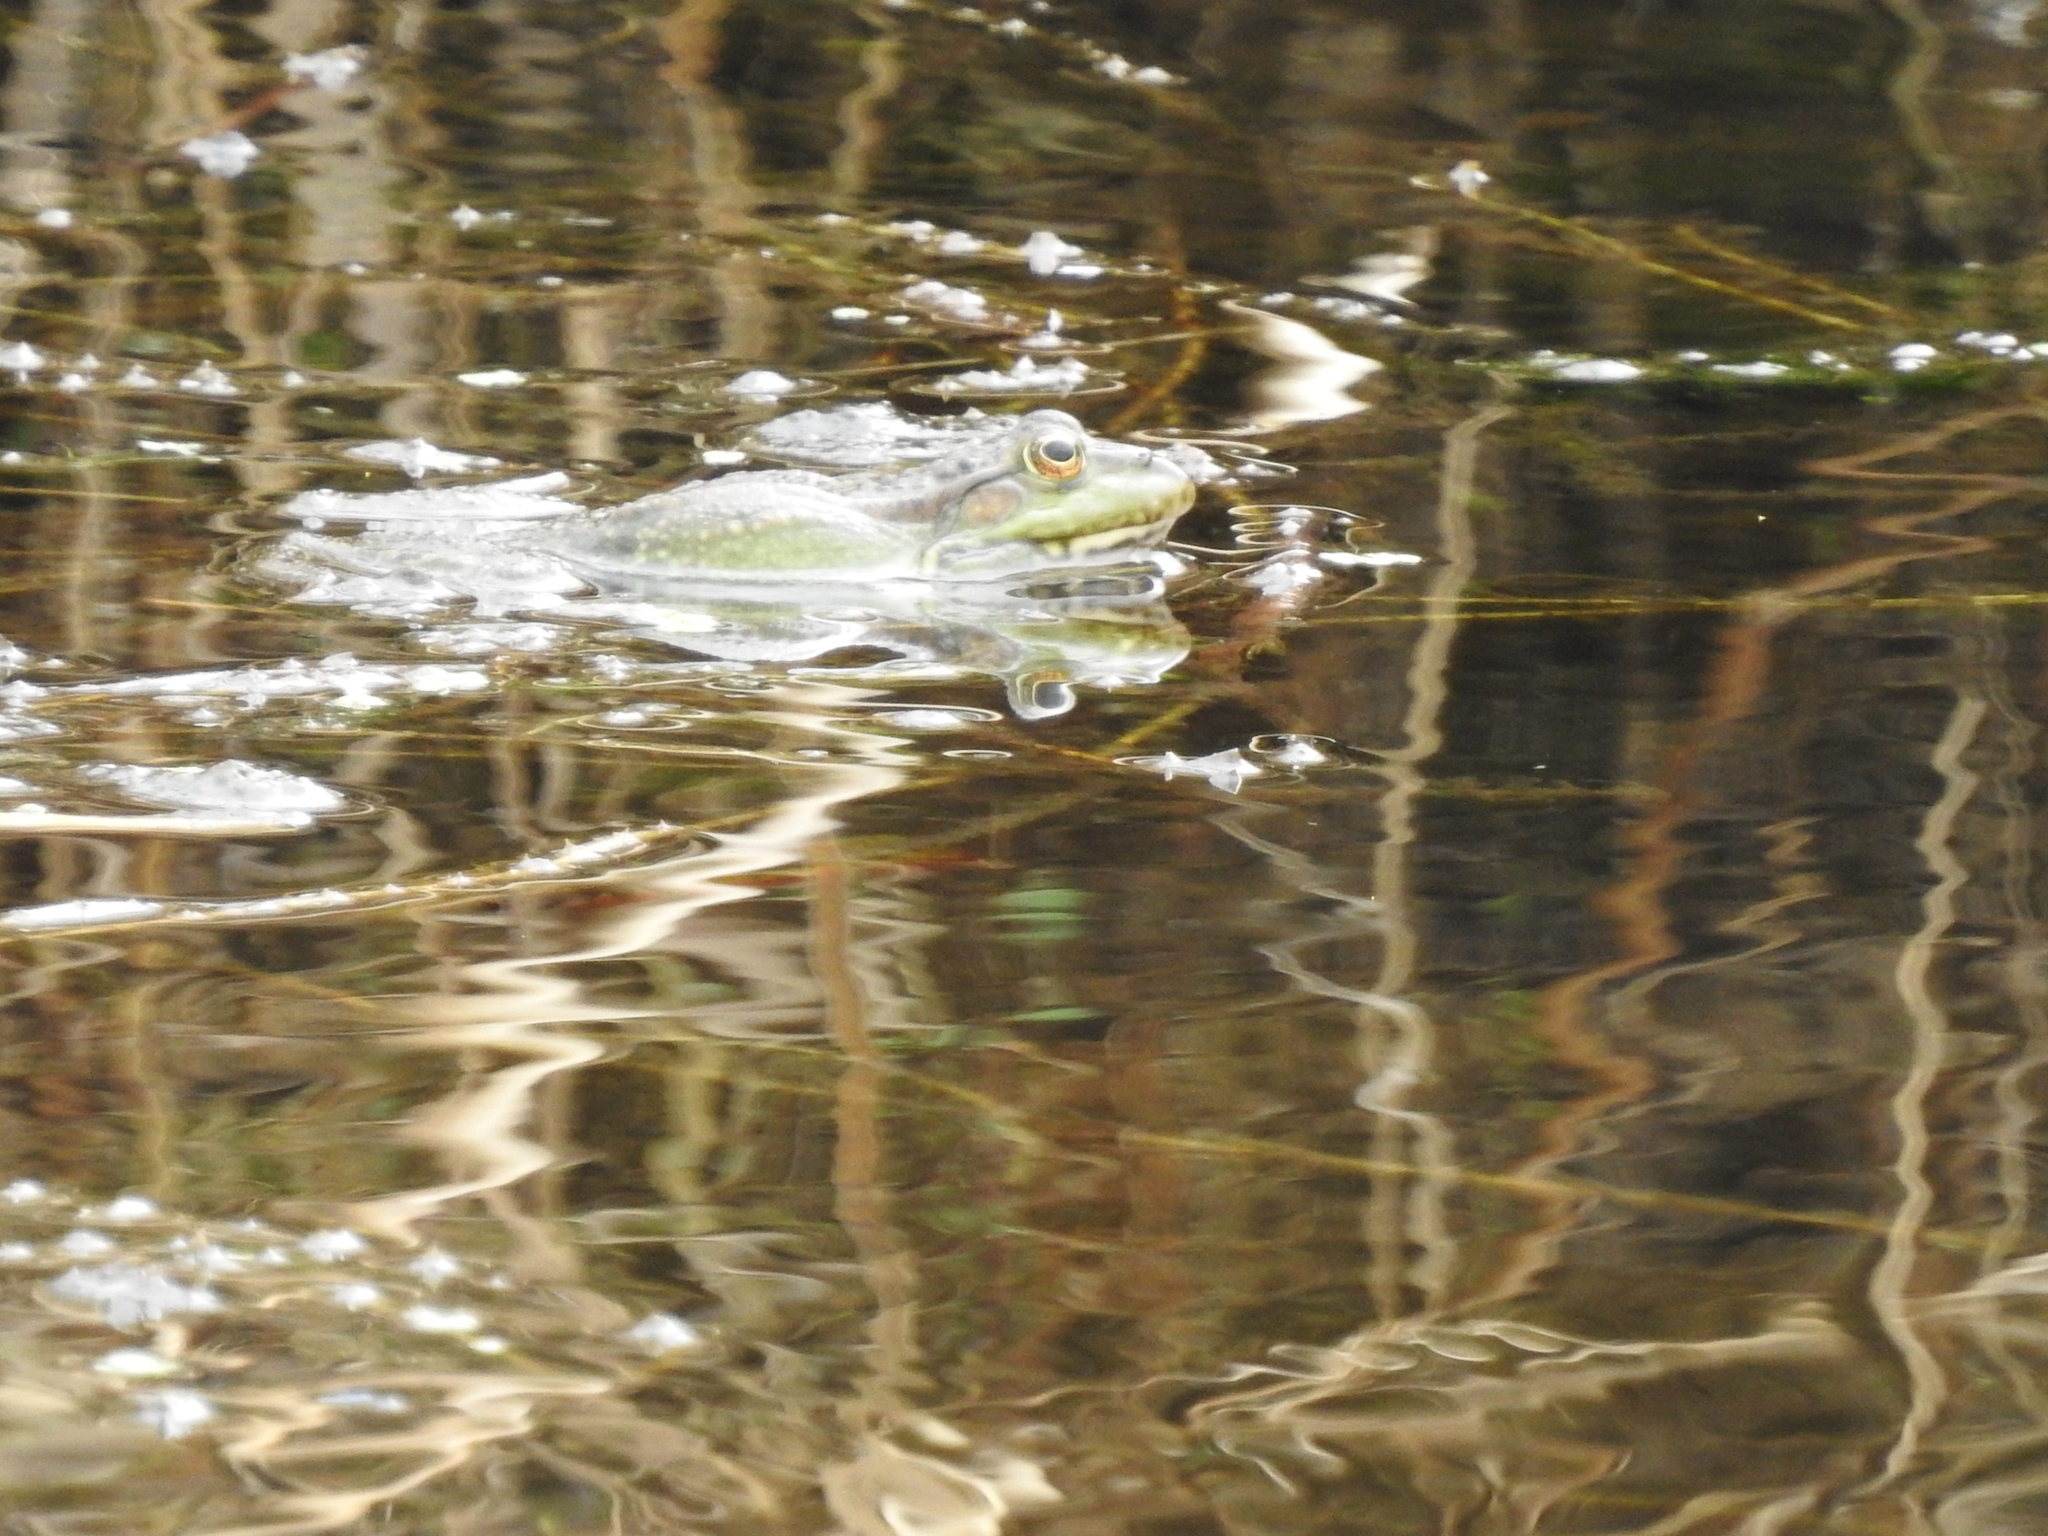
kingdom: Animalia
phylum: Chordata
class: Amphibia
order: Anura
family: Ranidae
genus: Pelophylax
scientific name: Pelophylax ridibundus
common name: Marsh frog
